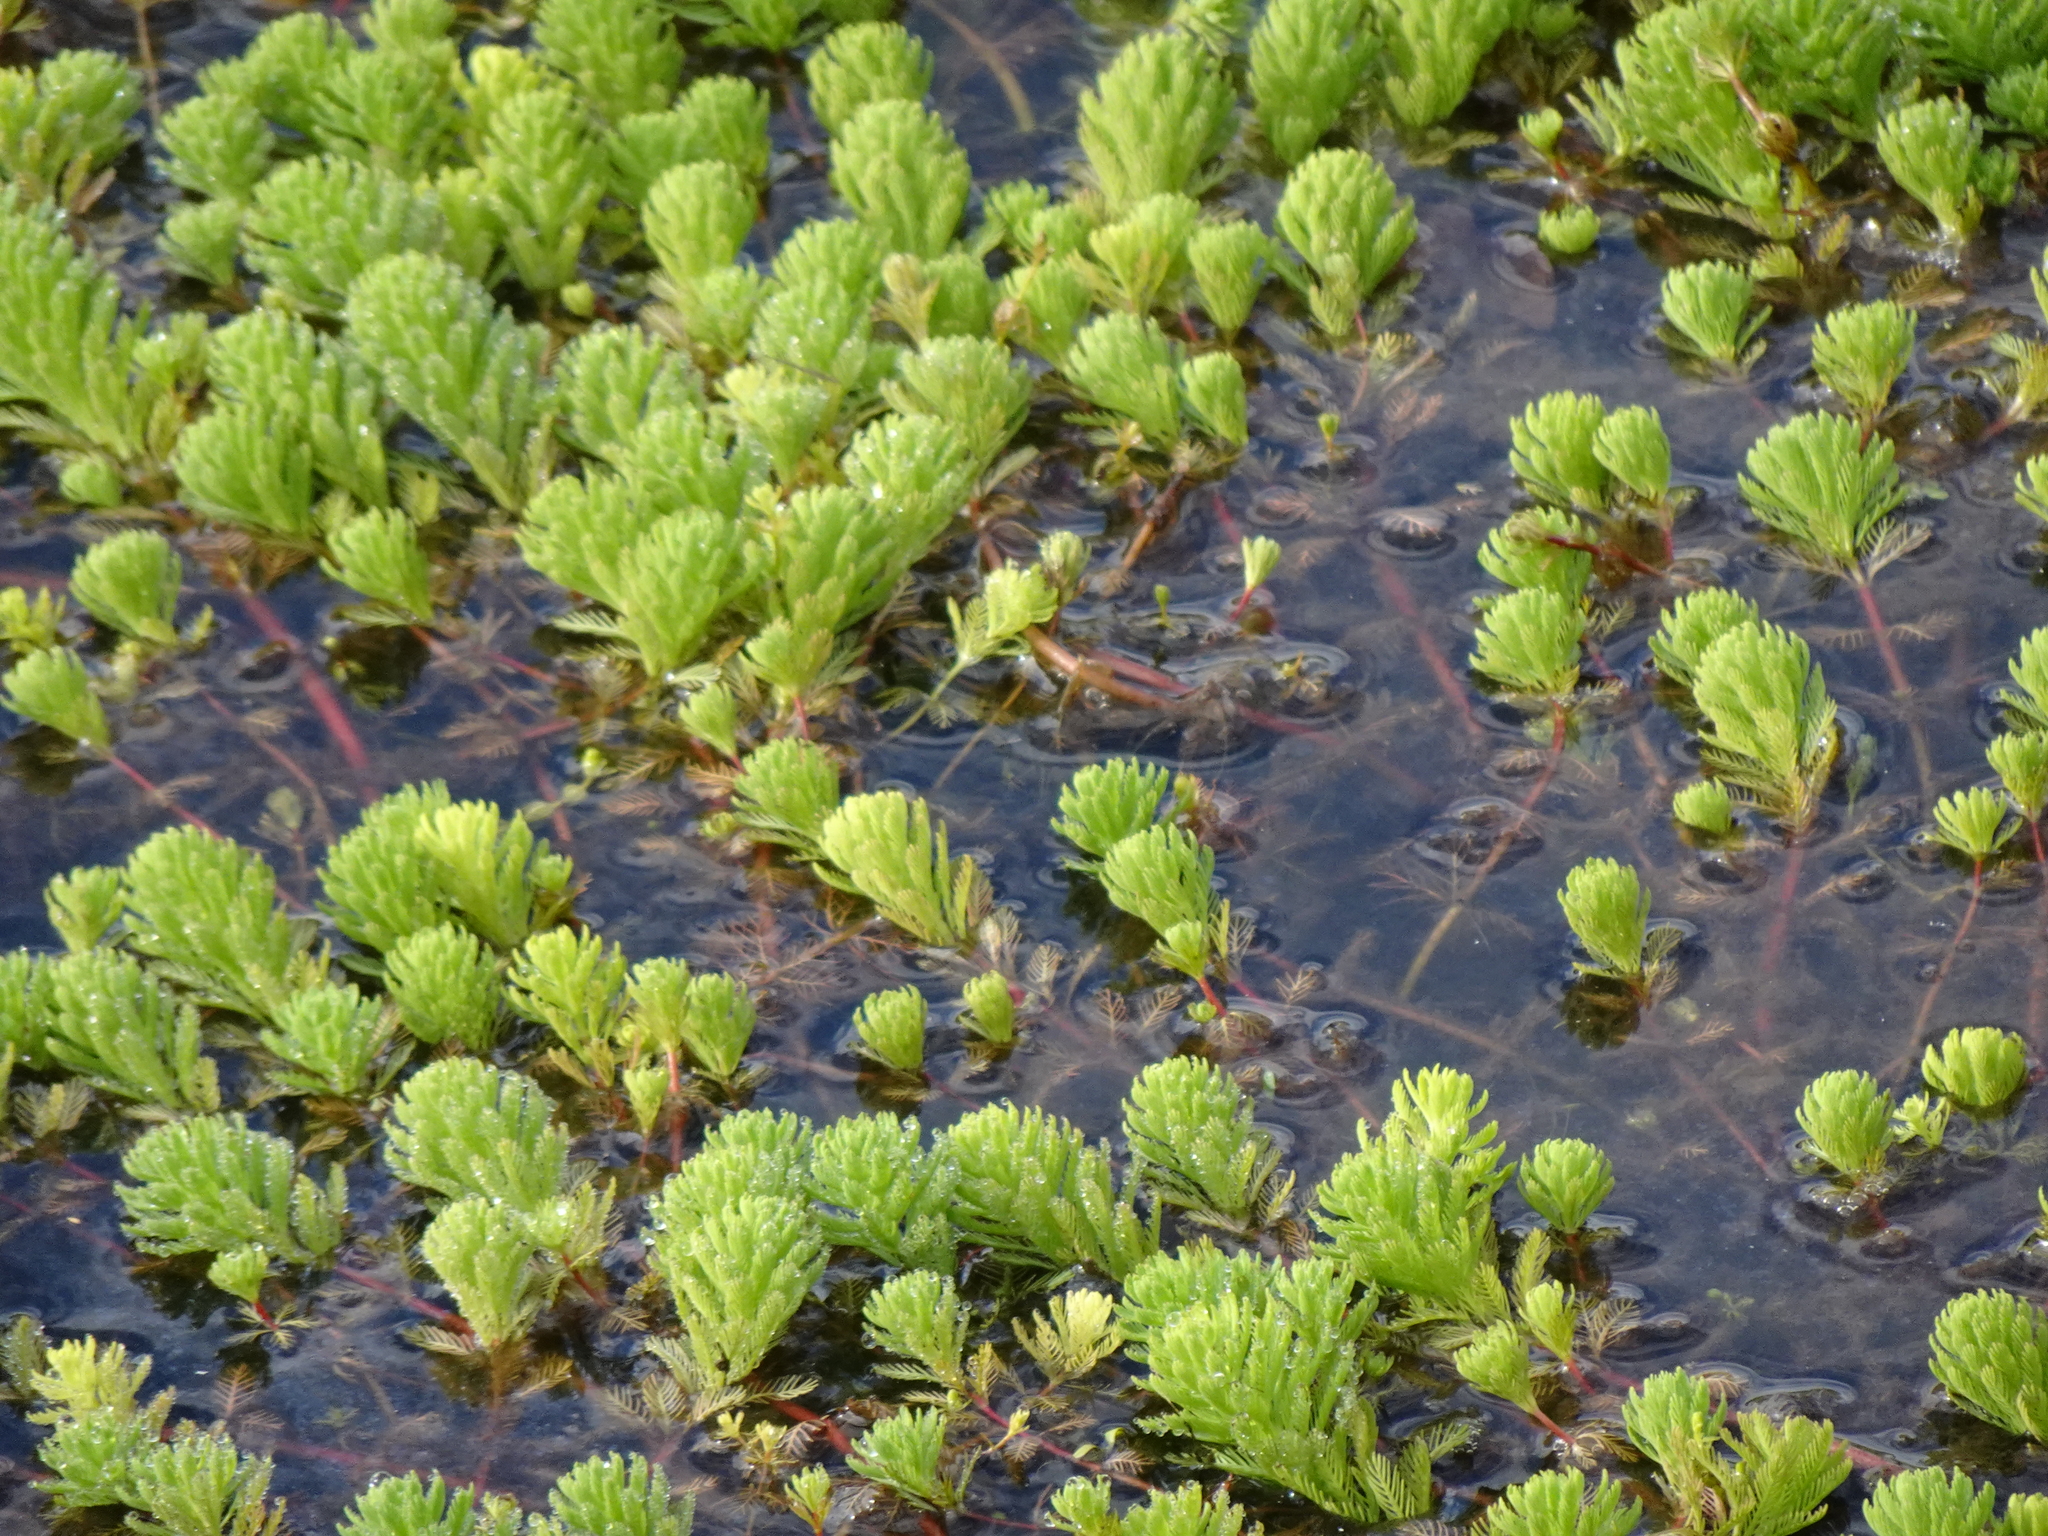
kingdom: Plantae
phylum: Tracheophyta
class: Magnoliopsida
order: Saxifragales
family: Haloragaceae
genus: Myriophyllum
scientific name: Myriophyllum aquaticum
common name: Parrot's feather
